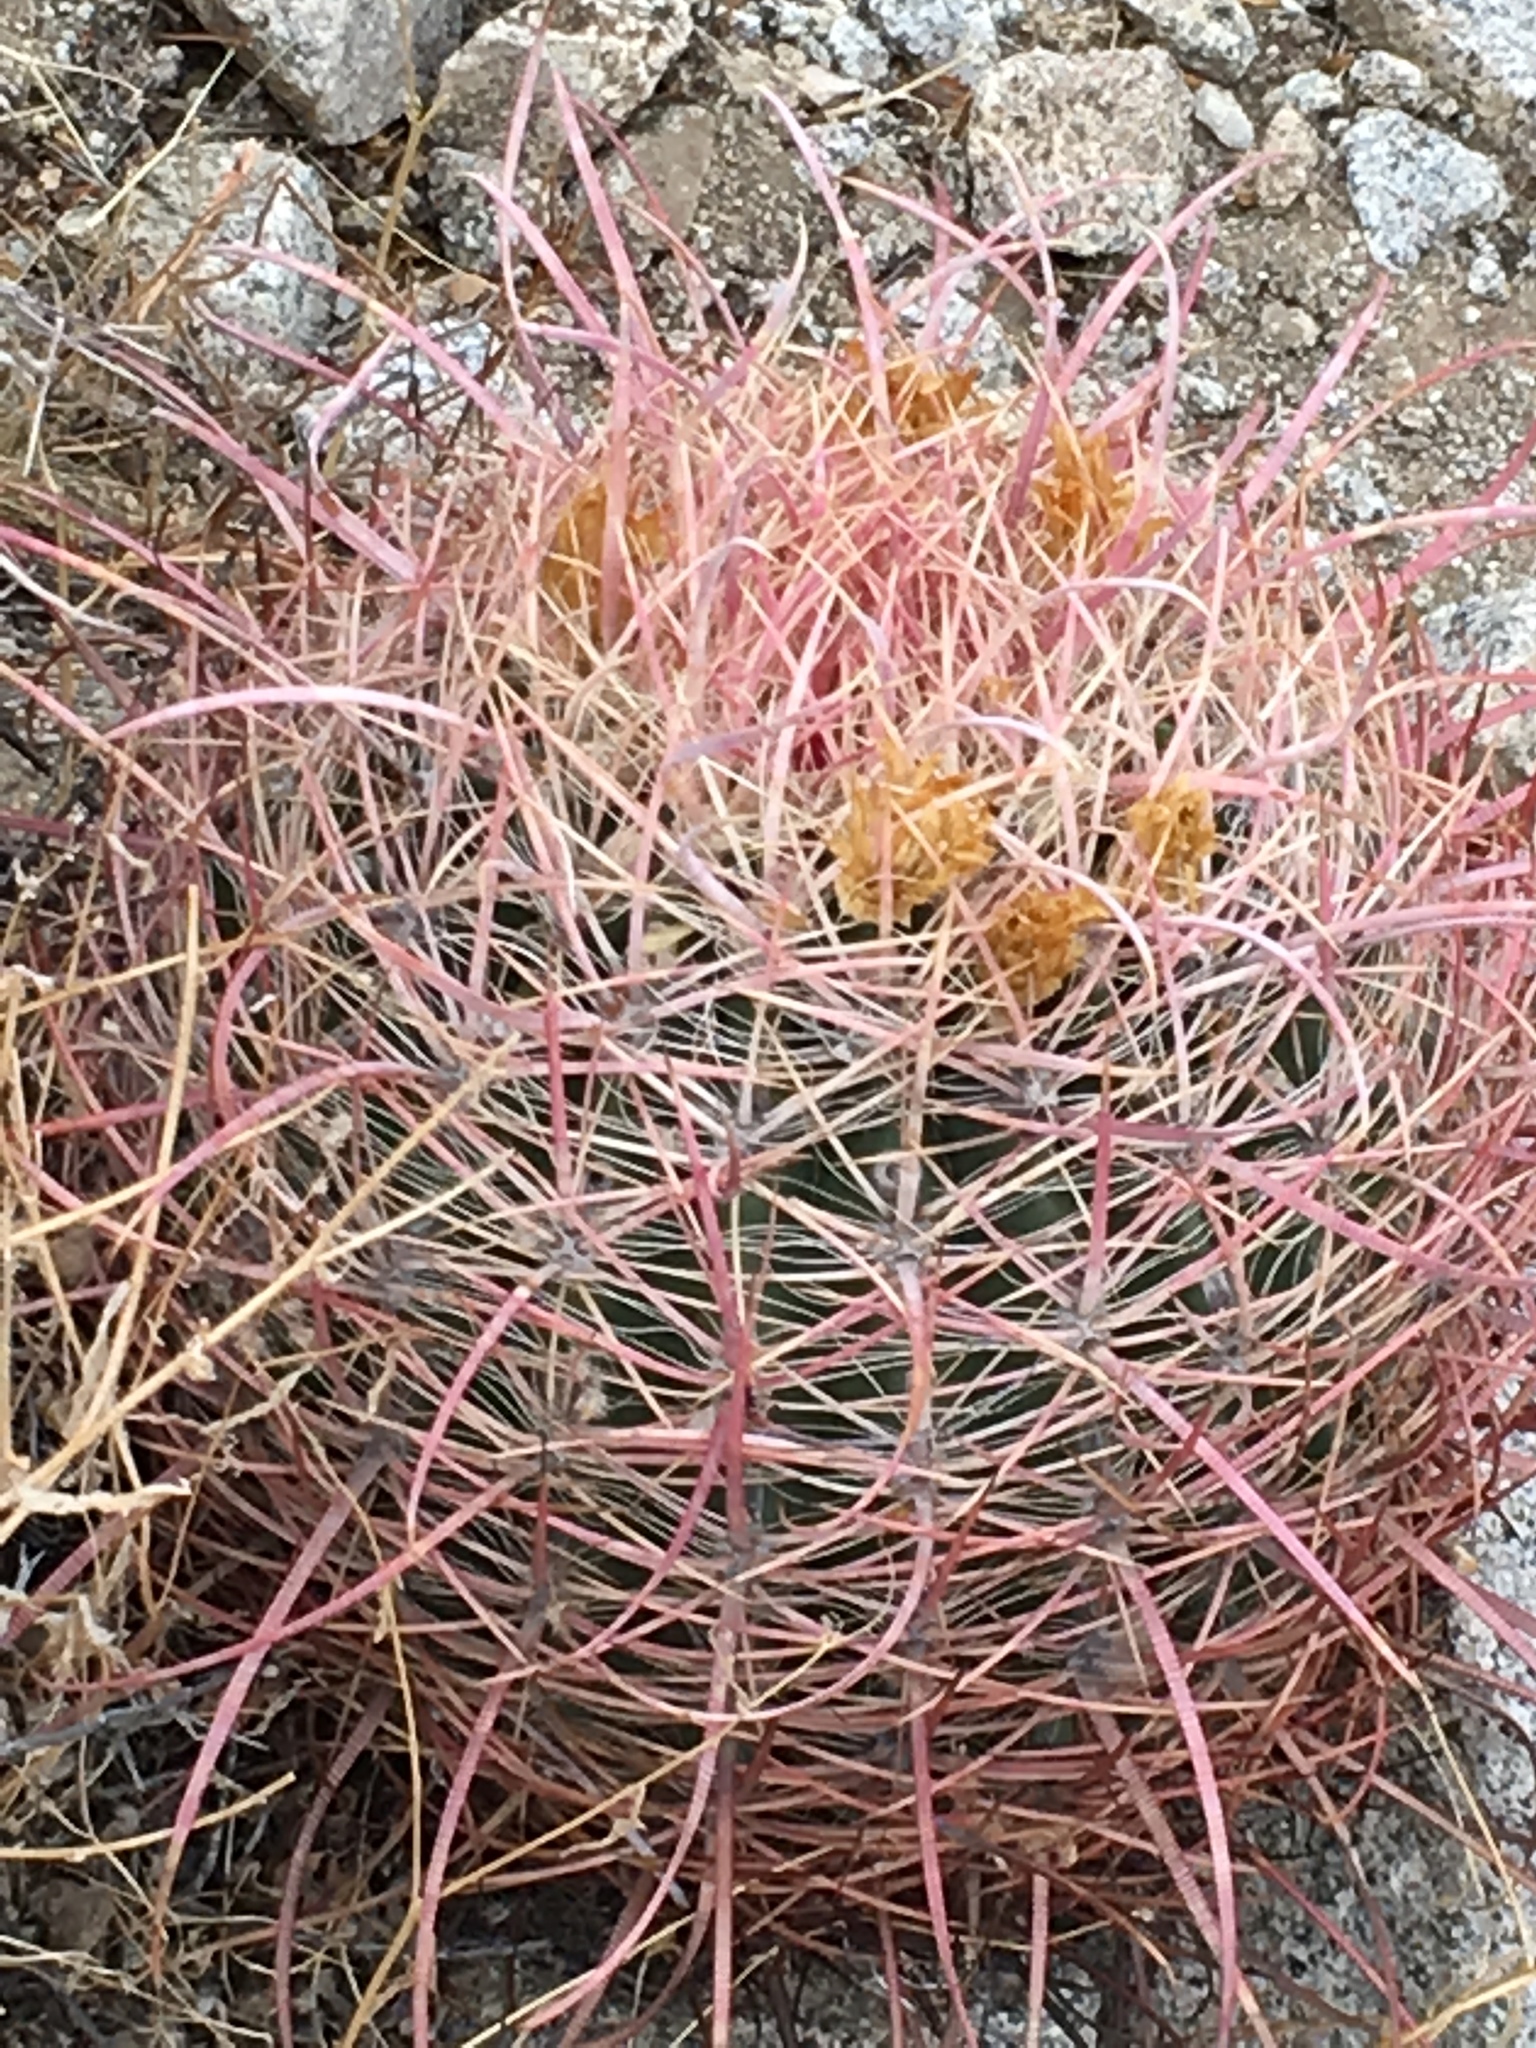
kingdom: Plantae
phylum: Tracheophyta
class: Magnoliopsida
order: Caryophyllales
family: Cactaceae
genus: Ferocactus
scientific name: Ferocactus cylindraceus
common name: California barrel cactus
